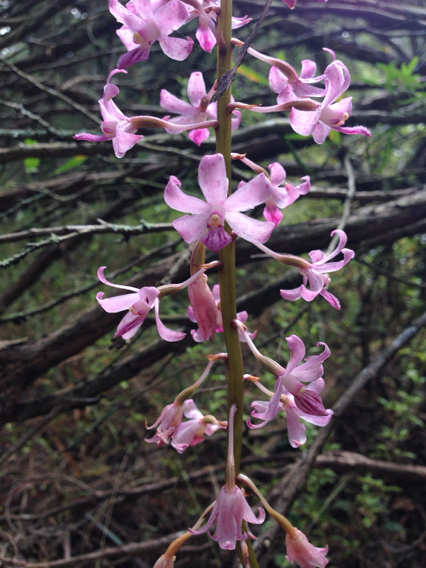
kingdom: Plantae
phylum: Tracheophyta
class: Liliopsida
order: Asparagales
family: Orchidaceae
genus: Dipodium
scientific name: Dipodium roseum
